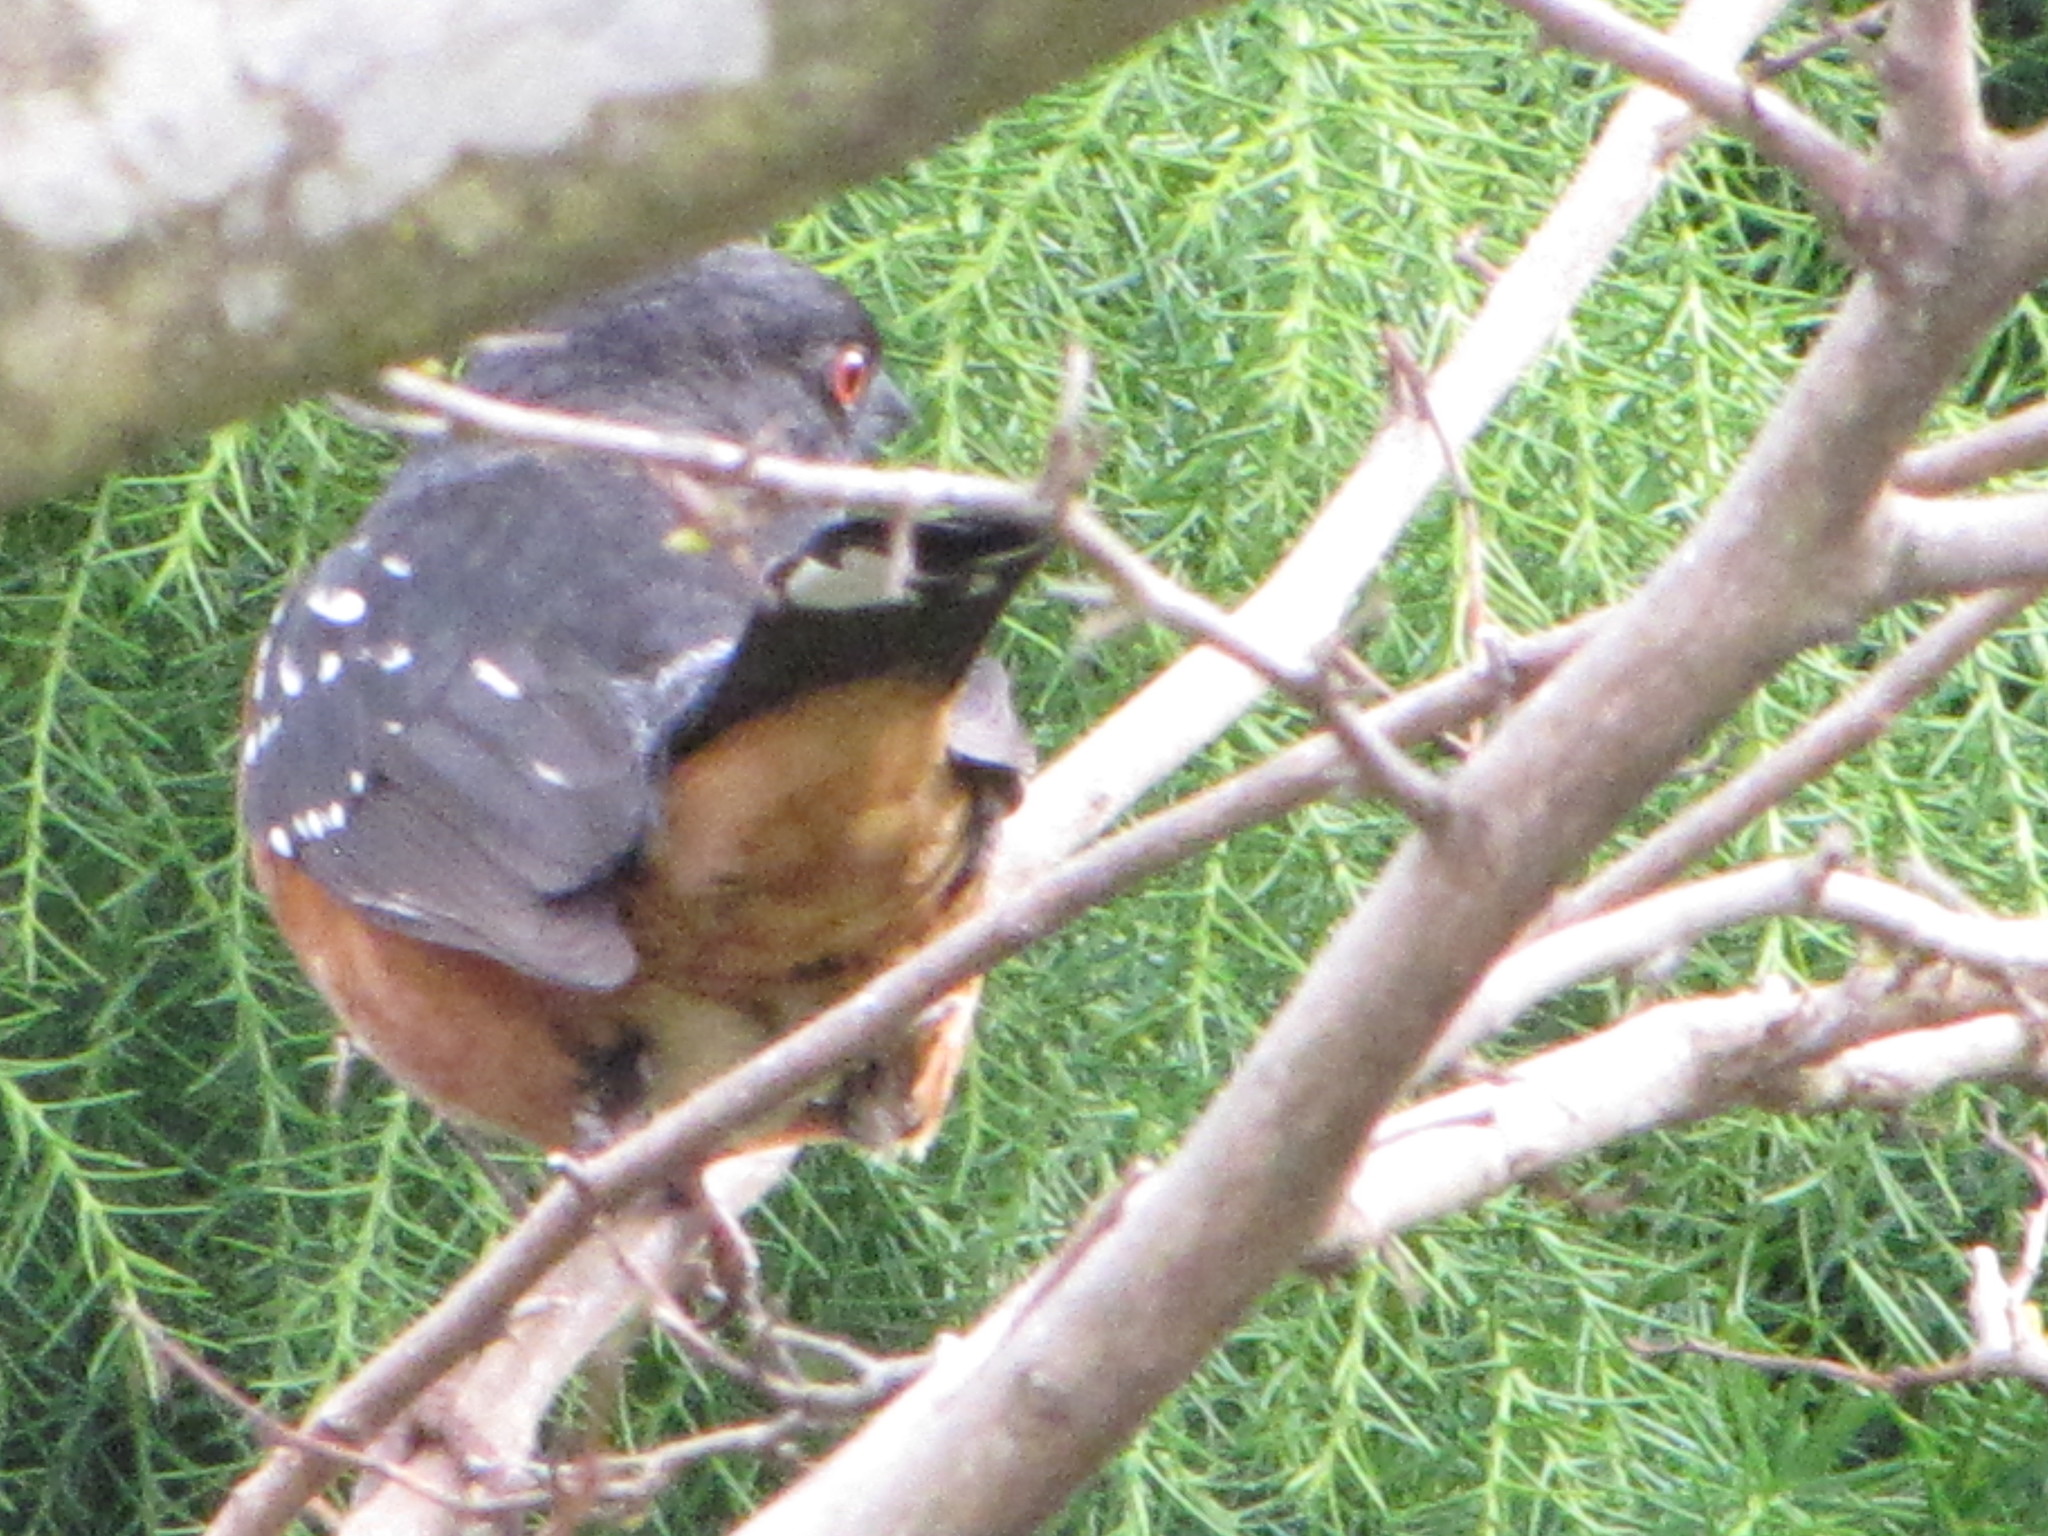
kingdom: Animalia
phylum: Chordata
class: Aves
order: Passeriformes
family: Passerellidae
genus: Pipilo
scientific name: Pipilo maculatus
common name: Spotted towhee
